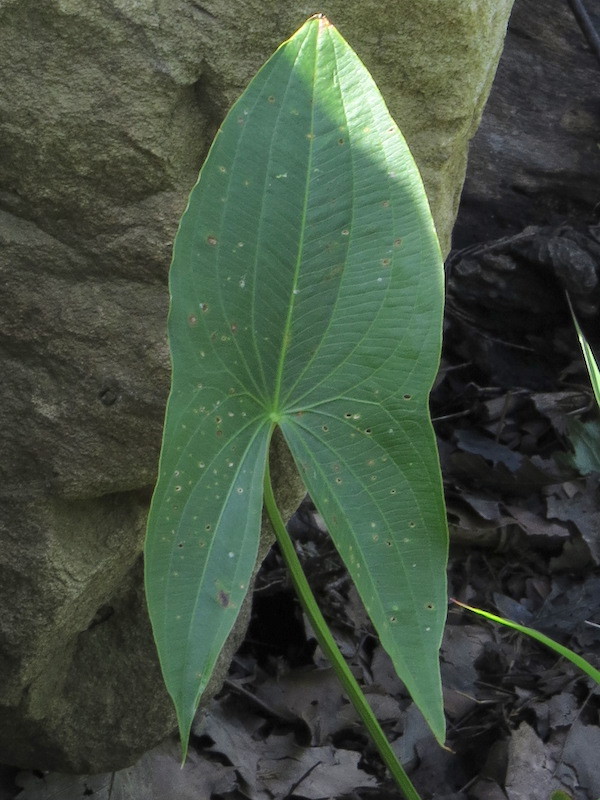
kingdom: Plantae
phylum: Tracheophyta
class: Liliopsida
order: Alismatales
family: Alismataceae
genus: Sagittaria
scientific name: Sagittaria latifolia
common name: Duck-potato
